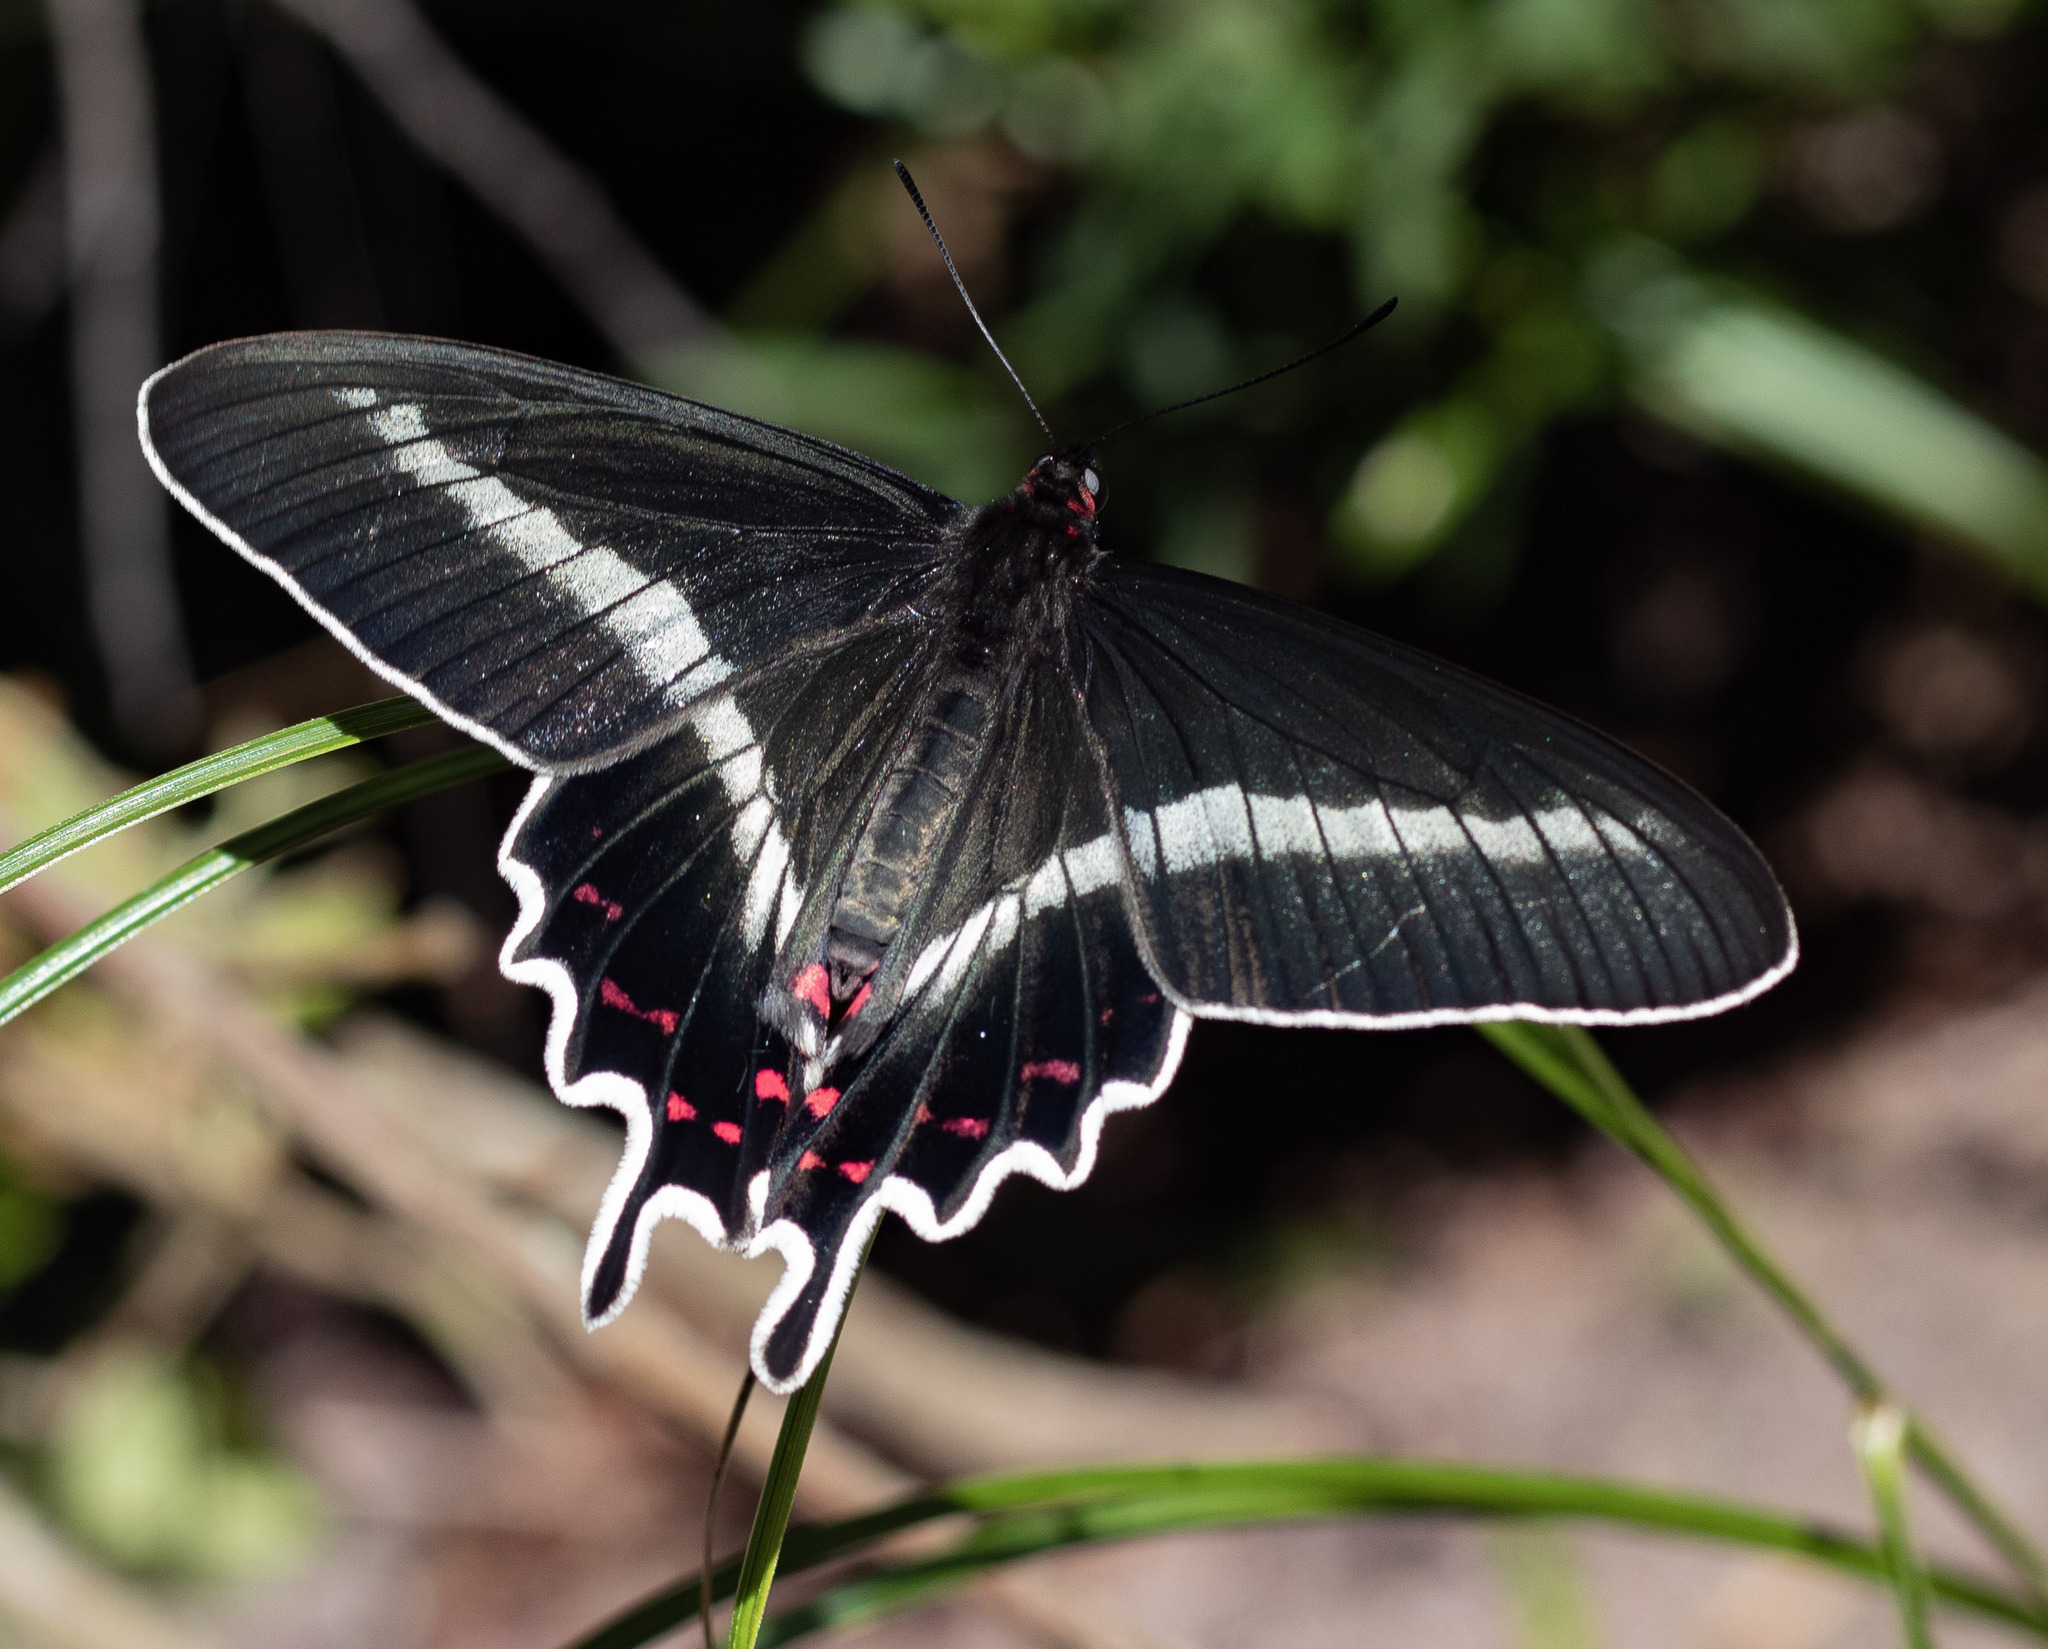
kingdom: Animalia
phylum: Arthropoda
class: Insecta
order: Lepidoptera
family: Papilionidae
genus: Parides
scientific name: Parides bunichus
